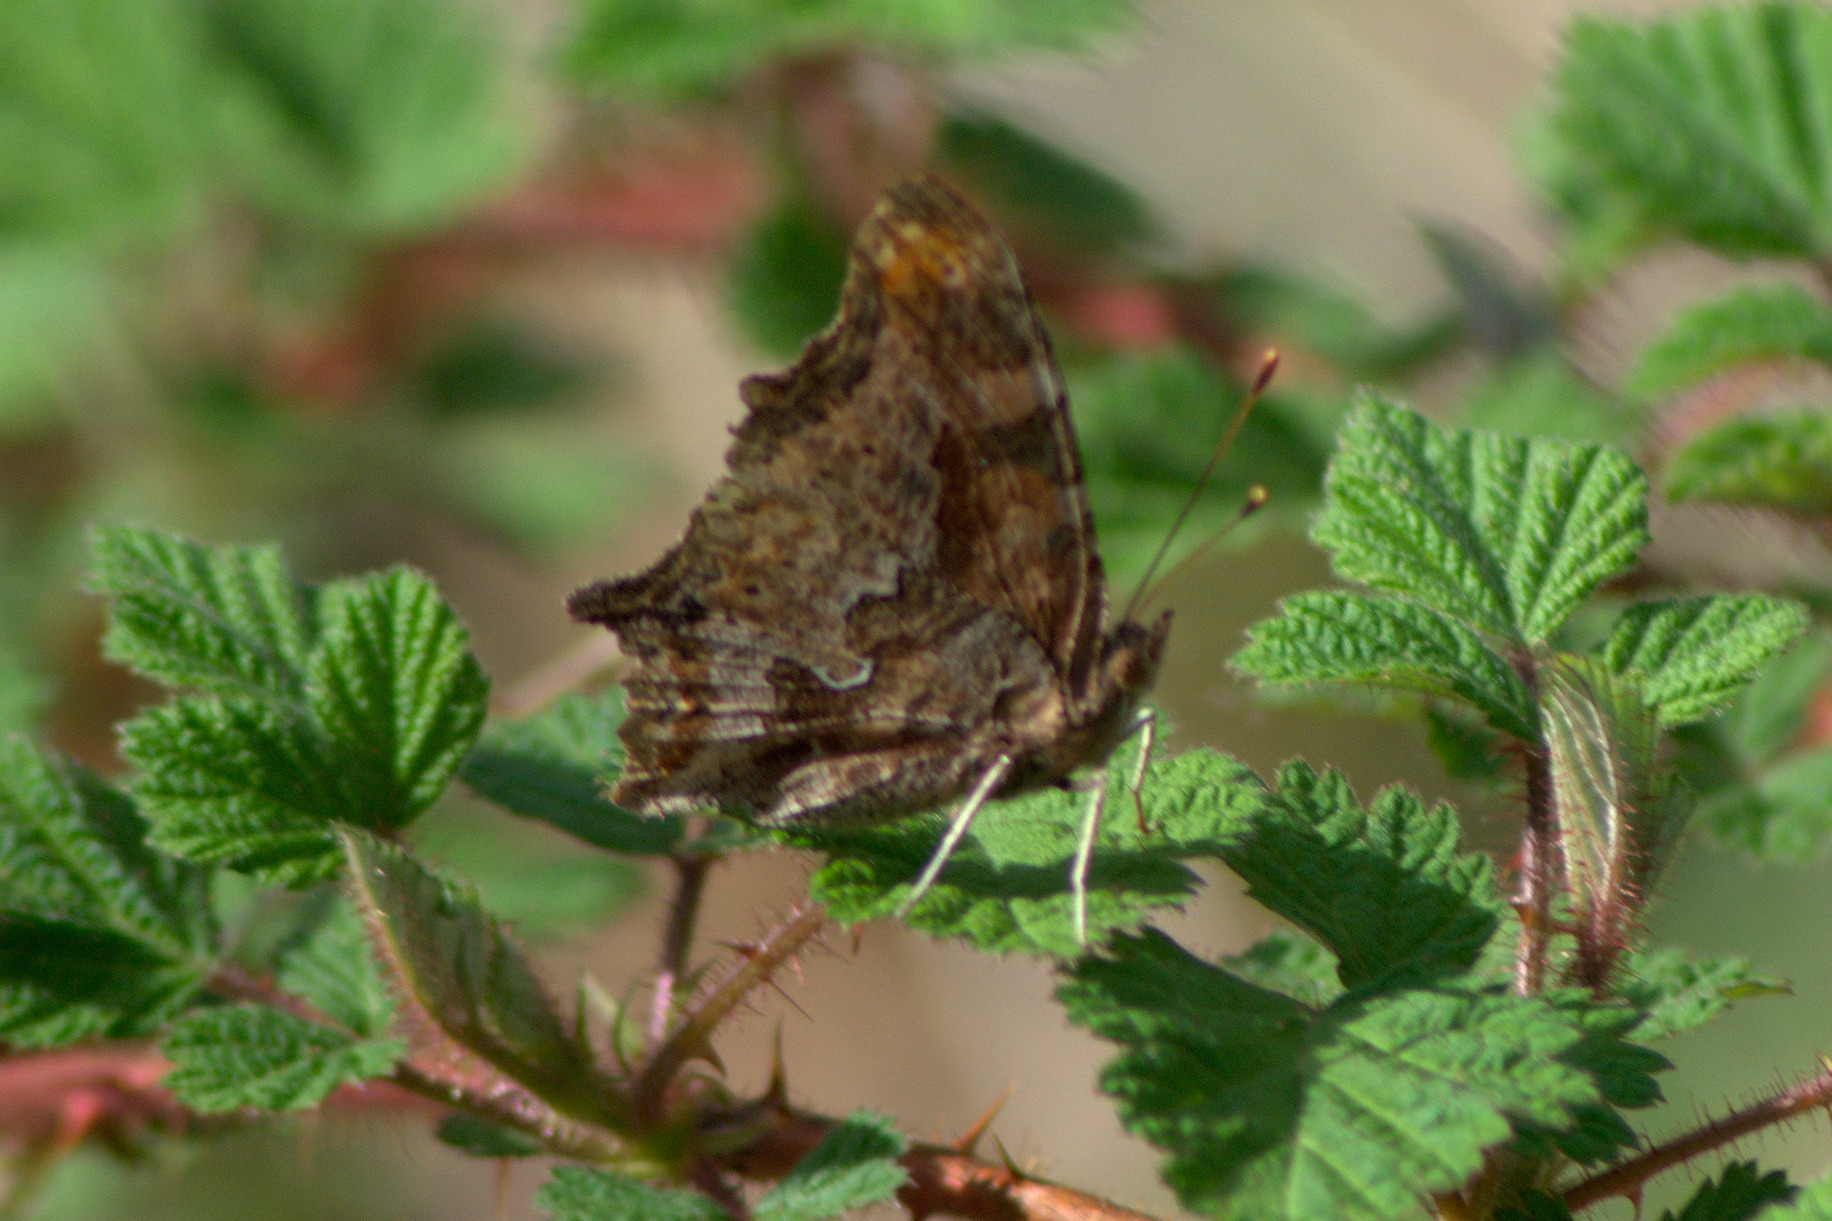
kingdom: Animalia
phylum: Arthropoda
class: Insecta
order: Lepidoptera
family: Nymphalidae
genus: Polygonia
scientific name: Polygonia comma
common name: Eastern comma
